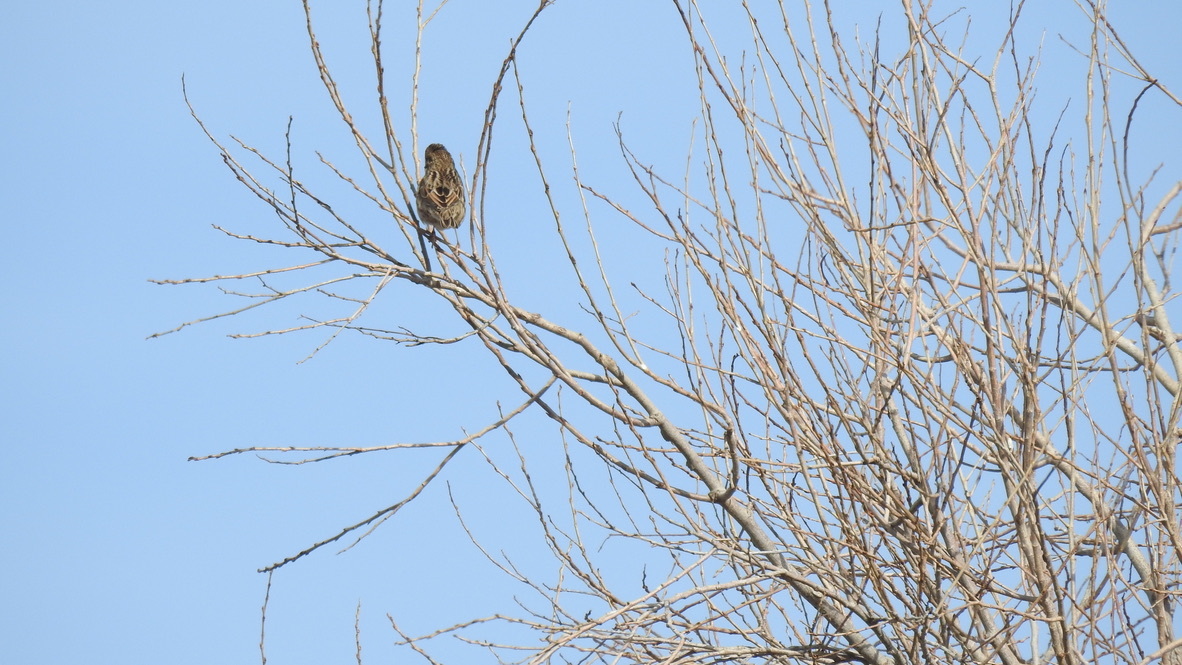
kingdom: Animalia
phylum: Chordata
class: Aves
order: Passeriformes
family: Passerellidae
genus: Passerculus
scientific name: Passerculus sandwichensis
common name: Savannah sparrow
